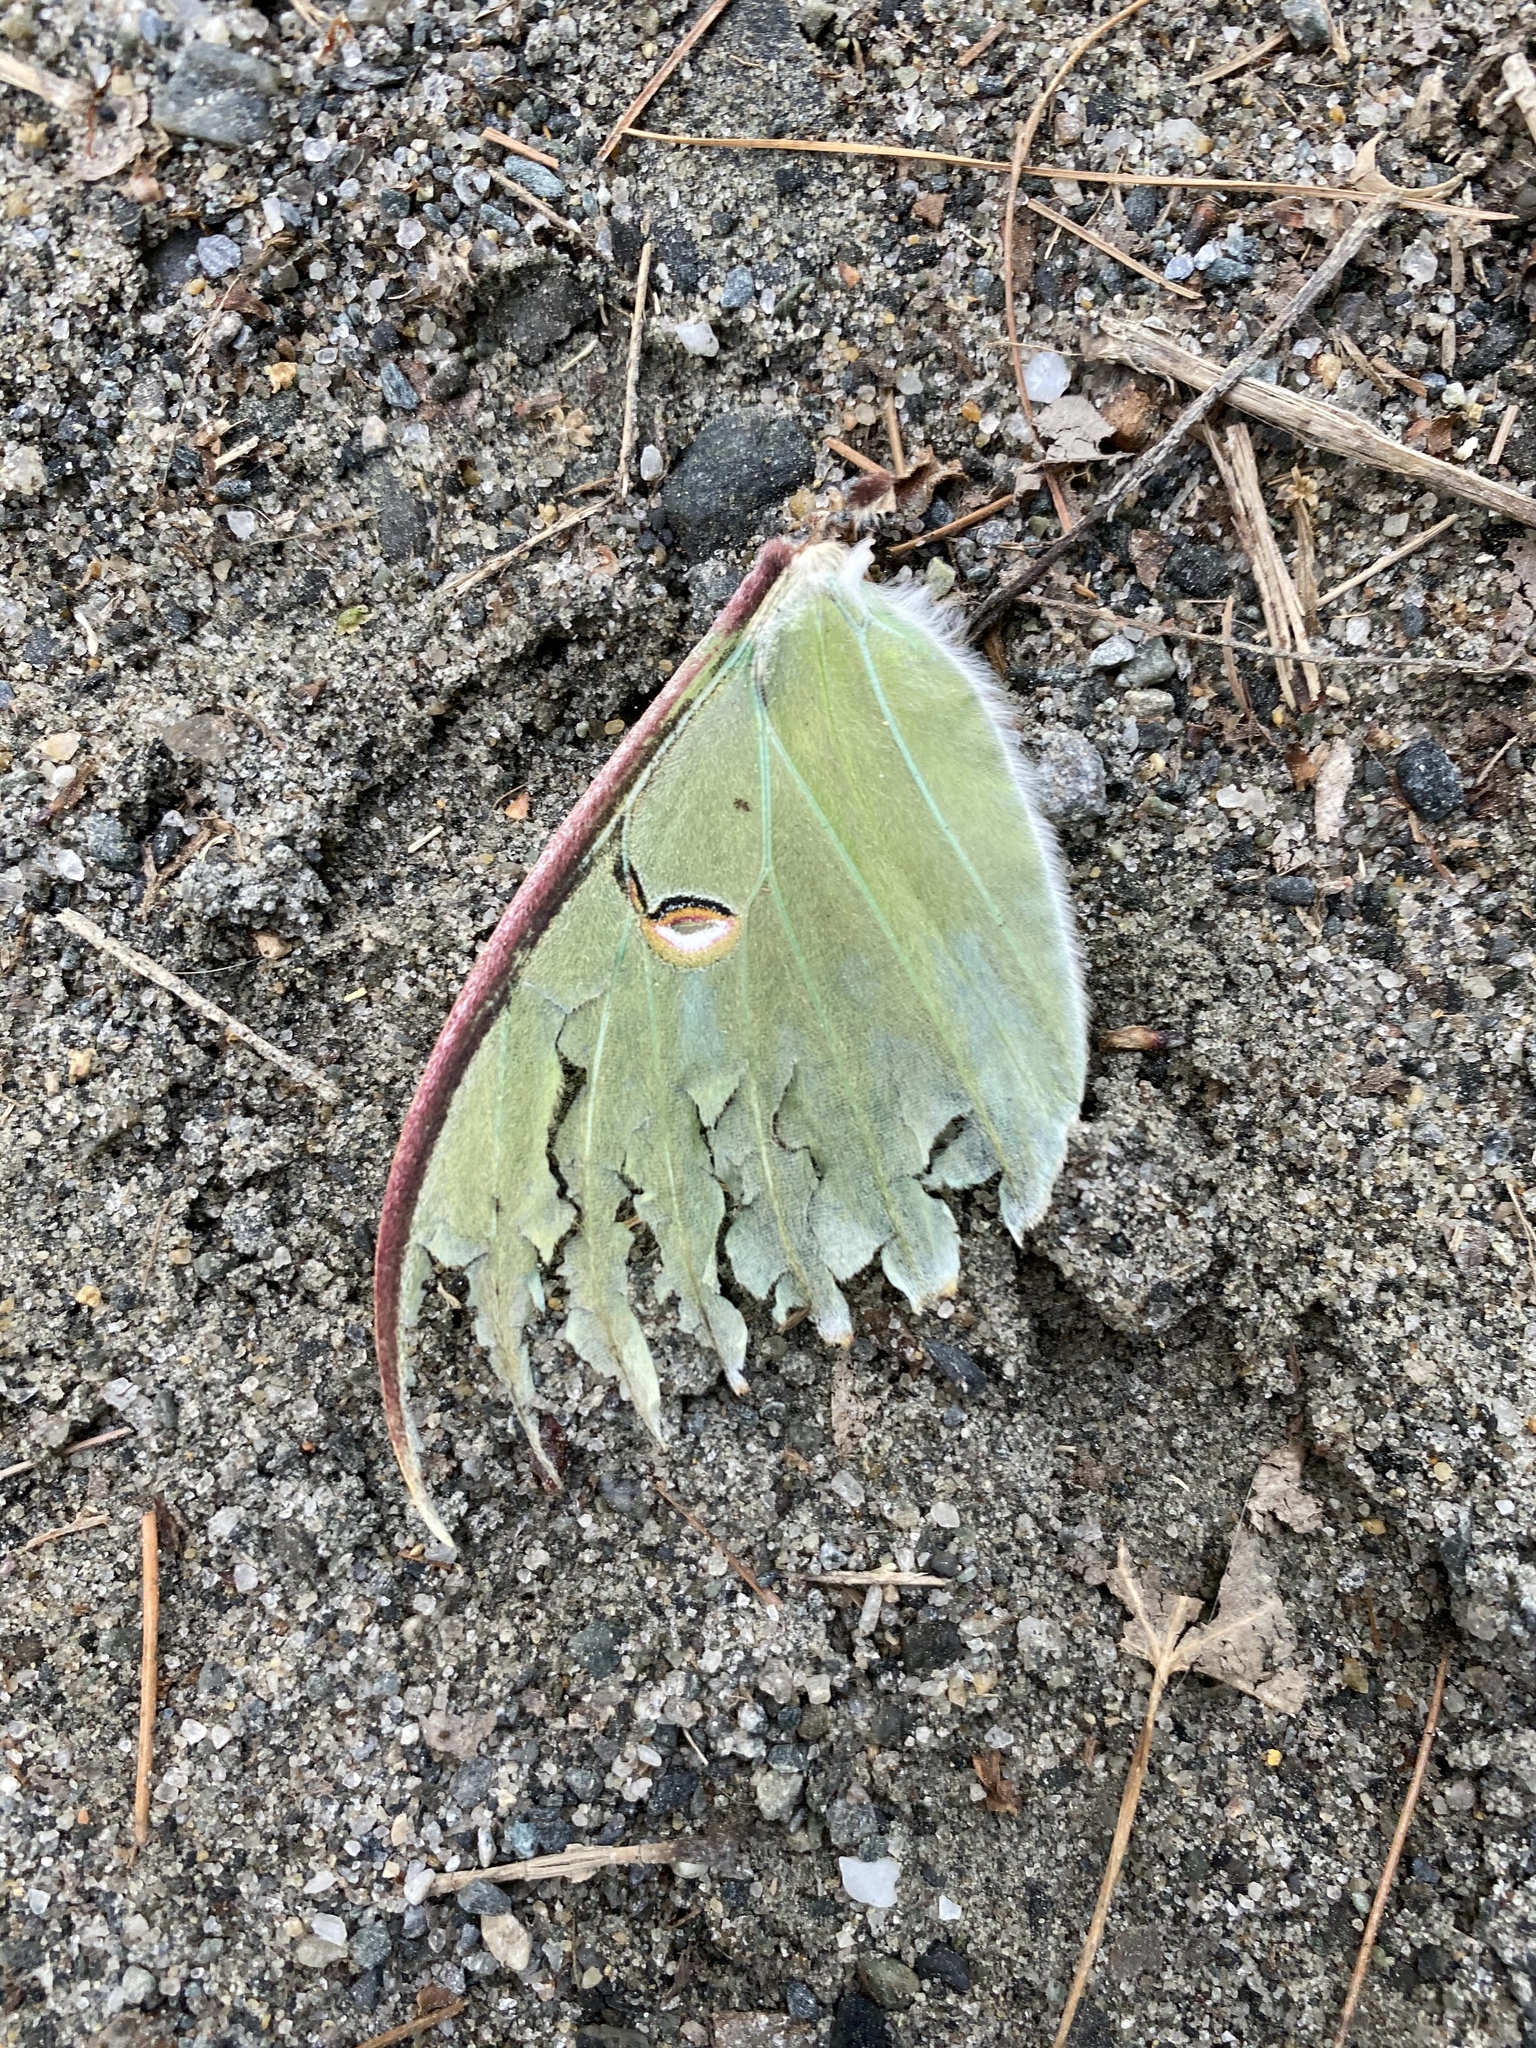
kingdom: Animalia
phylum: Arthropoda
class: Insecta
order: Lepidoptera
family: Saturniidae
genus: Actias
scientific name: Actias luna
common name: Luna moth
